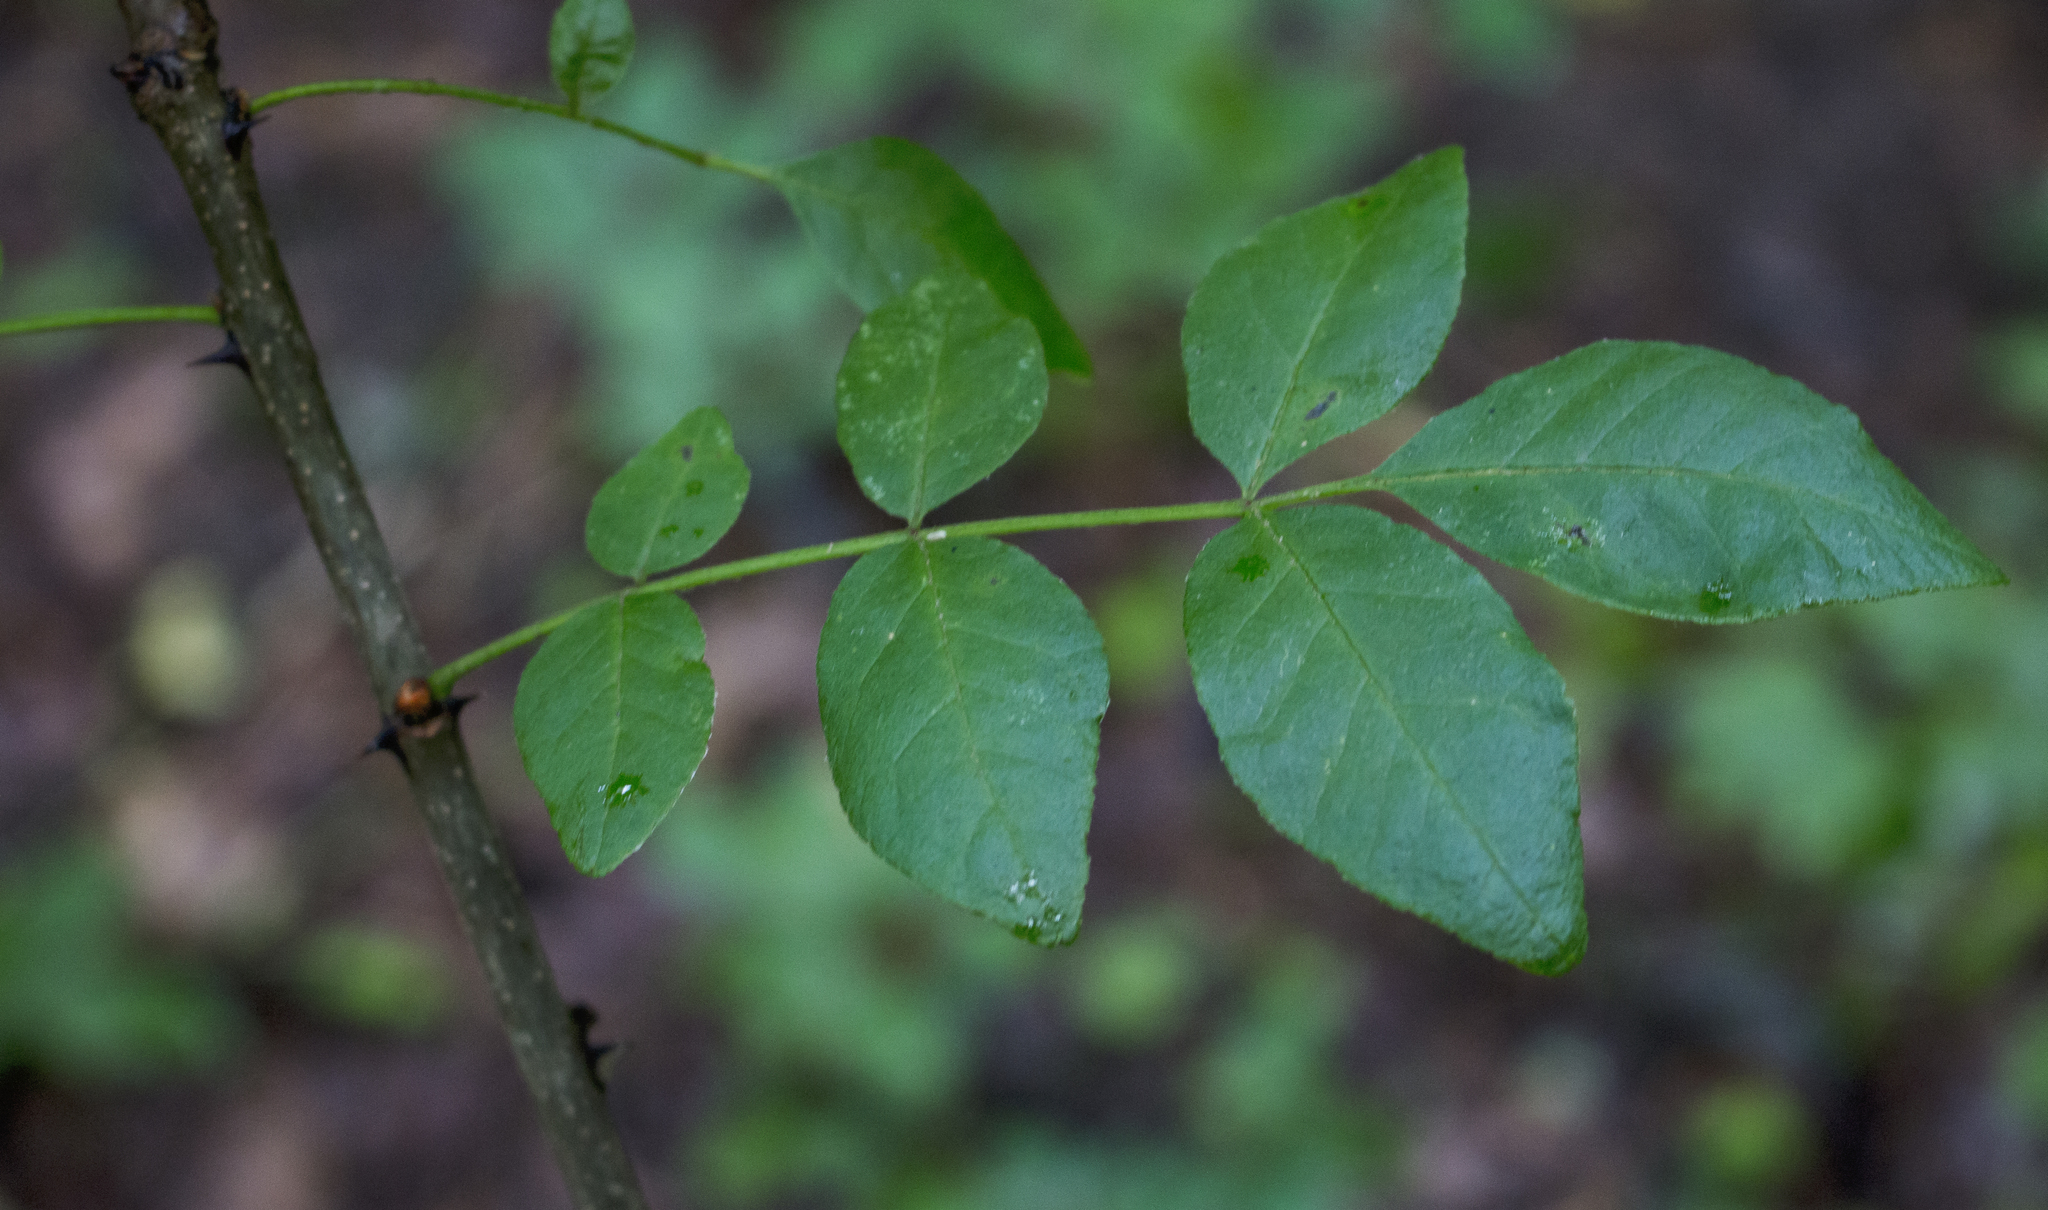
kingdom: Plantae
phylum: Tracheophyta
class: Magnoliopsida
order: Sapindales
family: Rutaceae
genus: Zanthoxylum
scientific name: Zanthoxylum americanum
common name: Northern prickly-ash
